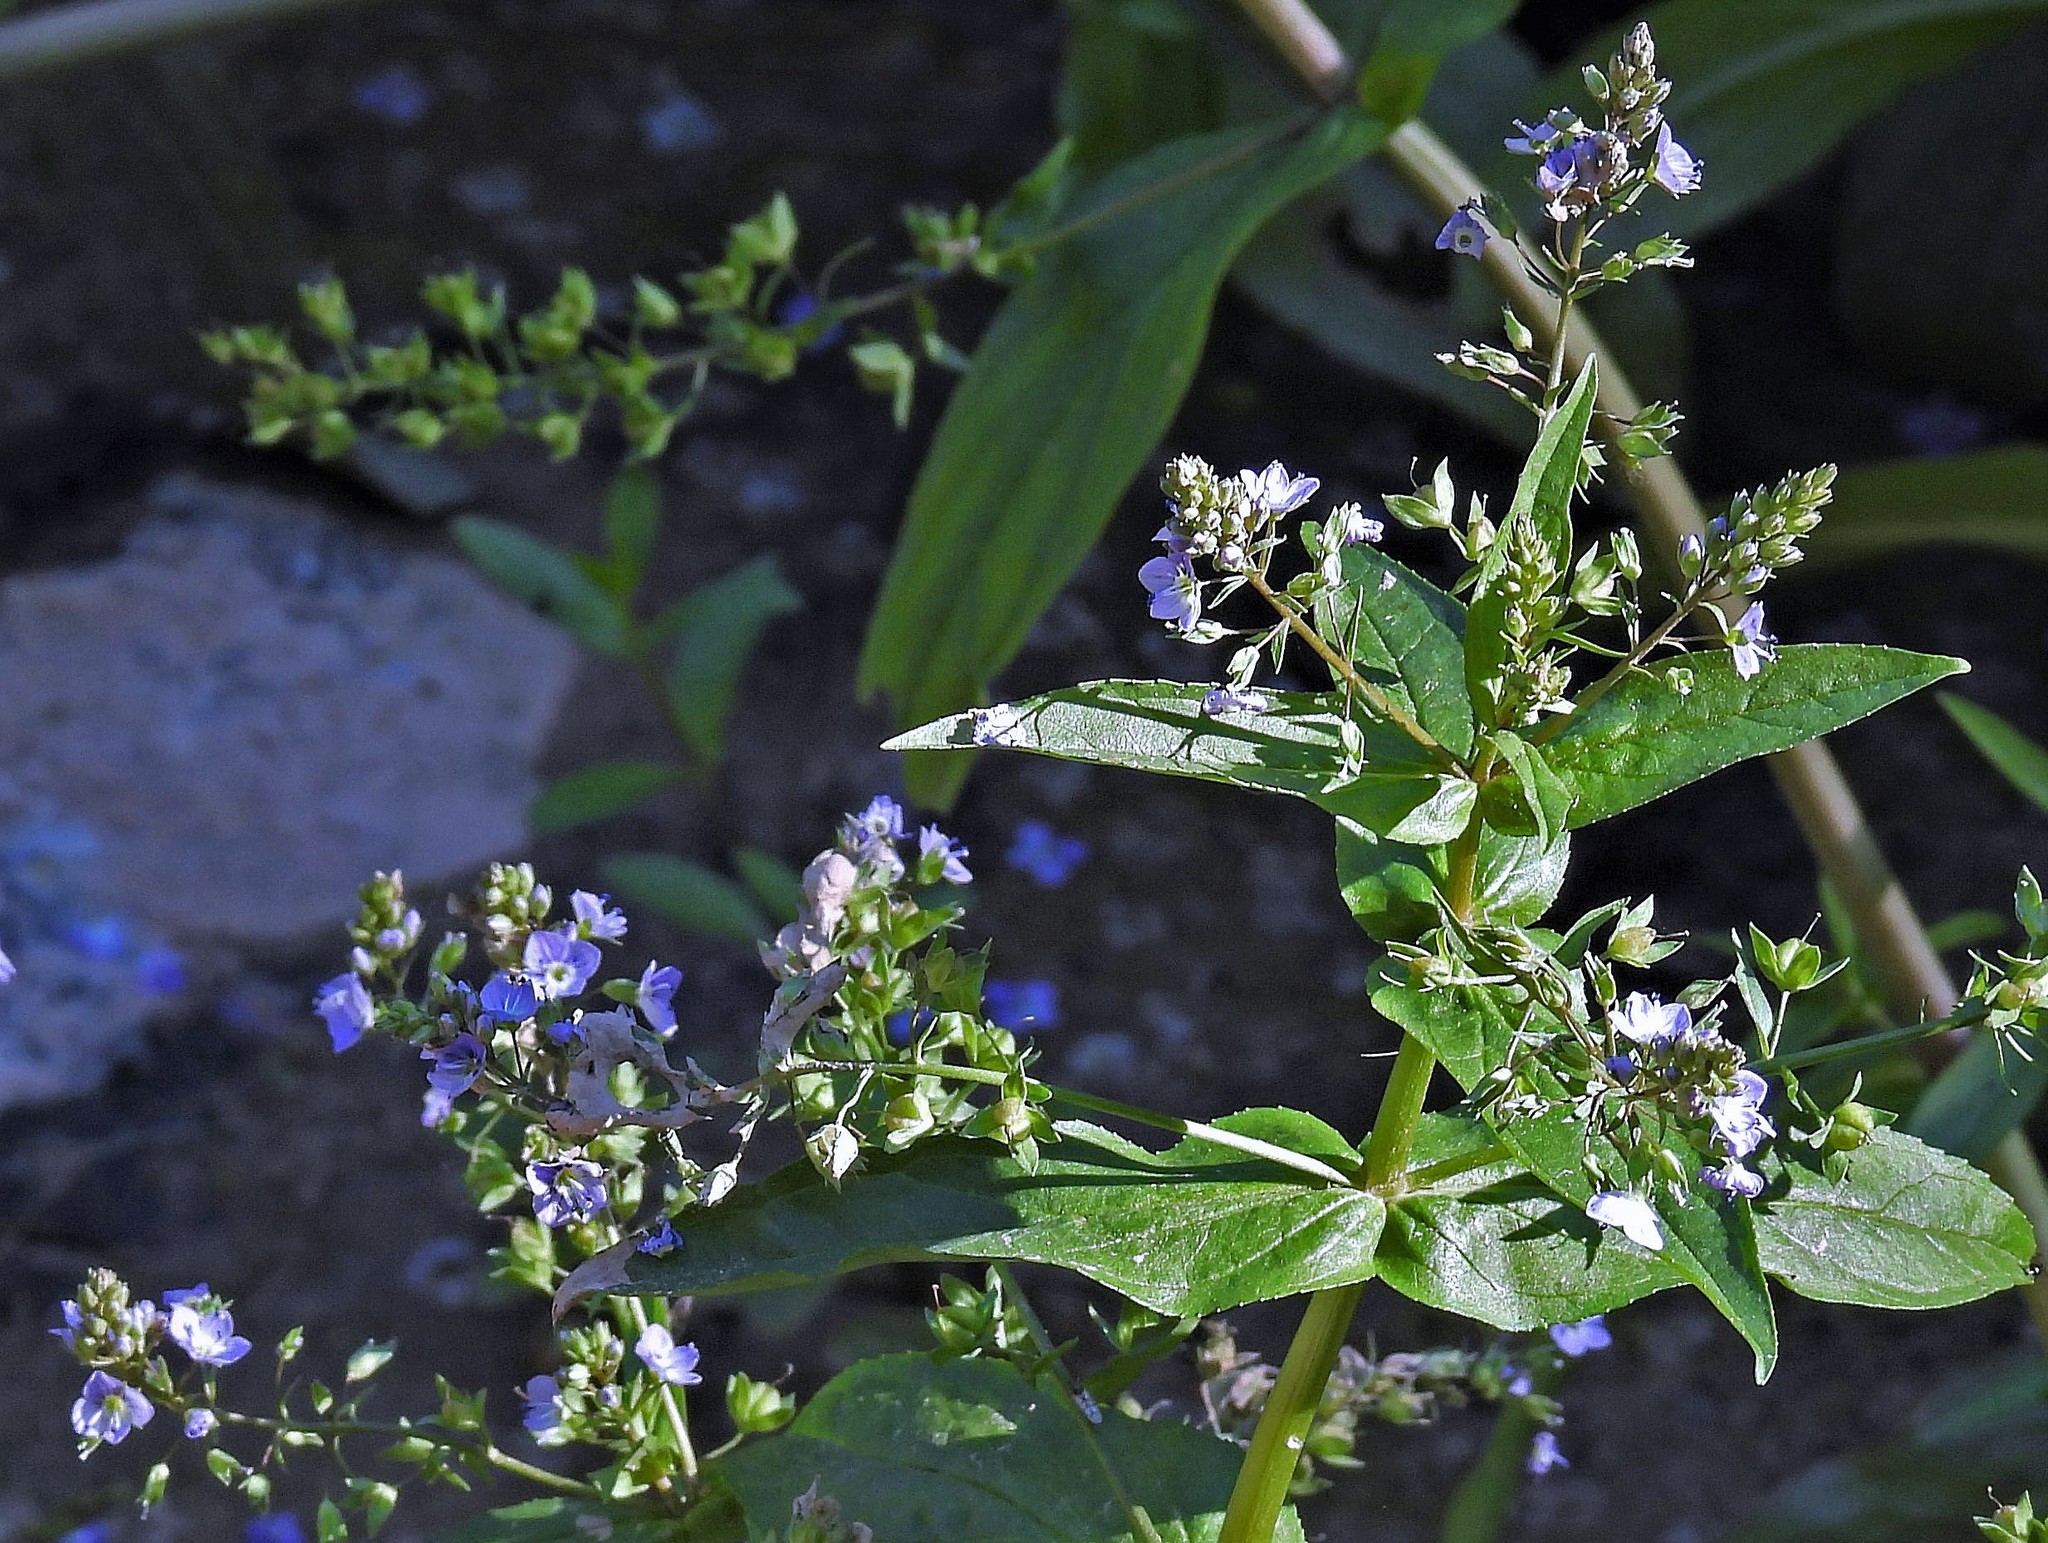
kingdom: Plantae
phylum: Tracheophyta
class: Magnoliopsida
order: Lamiales
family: Plantaginaceae
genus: Veronica
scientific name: Veronica anagallis-aquatica
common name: Water speedwell
